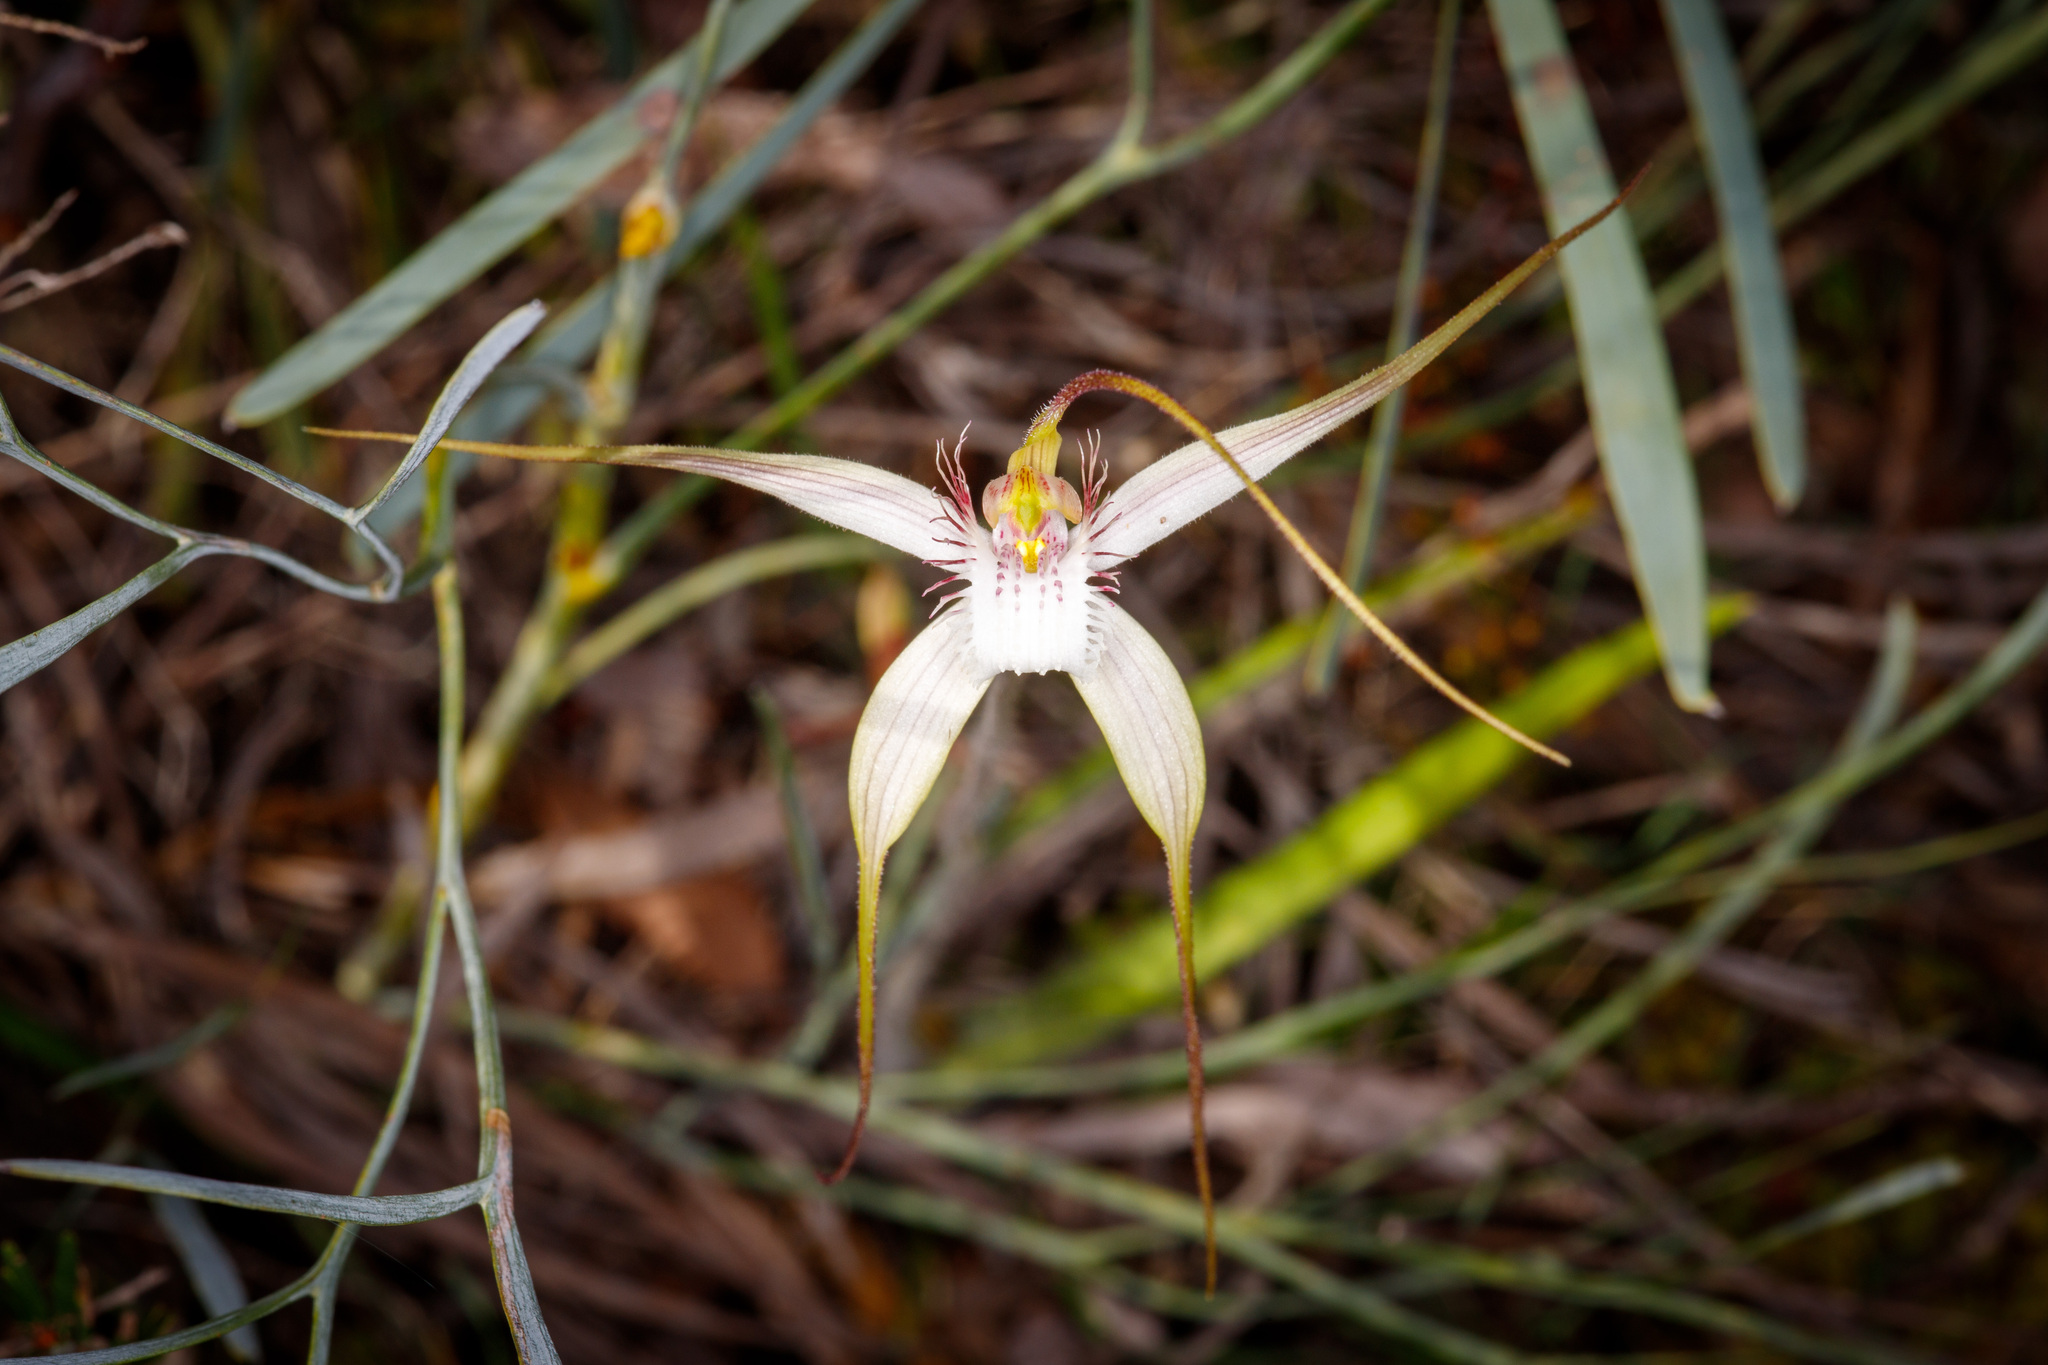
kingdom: Plantae
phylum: Tracheophyta
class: Liliopsida
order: Asparagales
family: Orchidaceae
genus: Caladenia
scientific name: Caladenia speciosa
